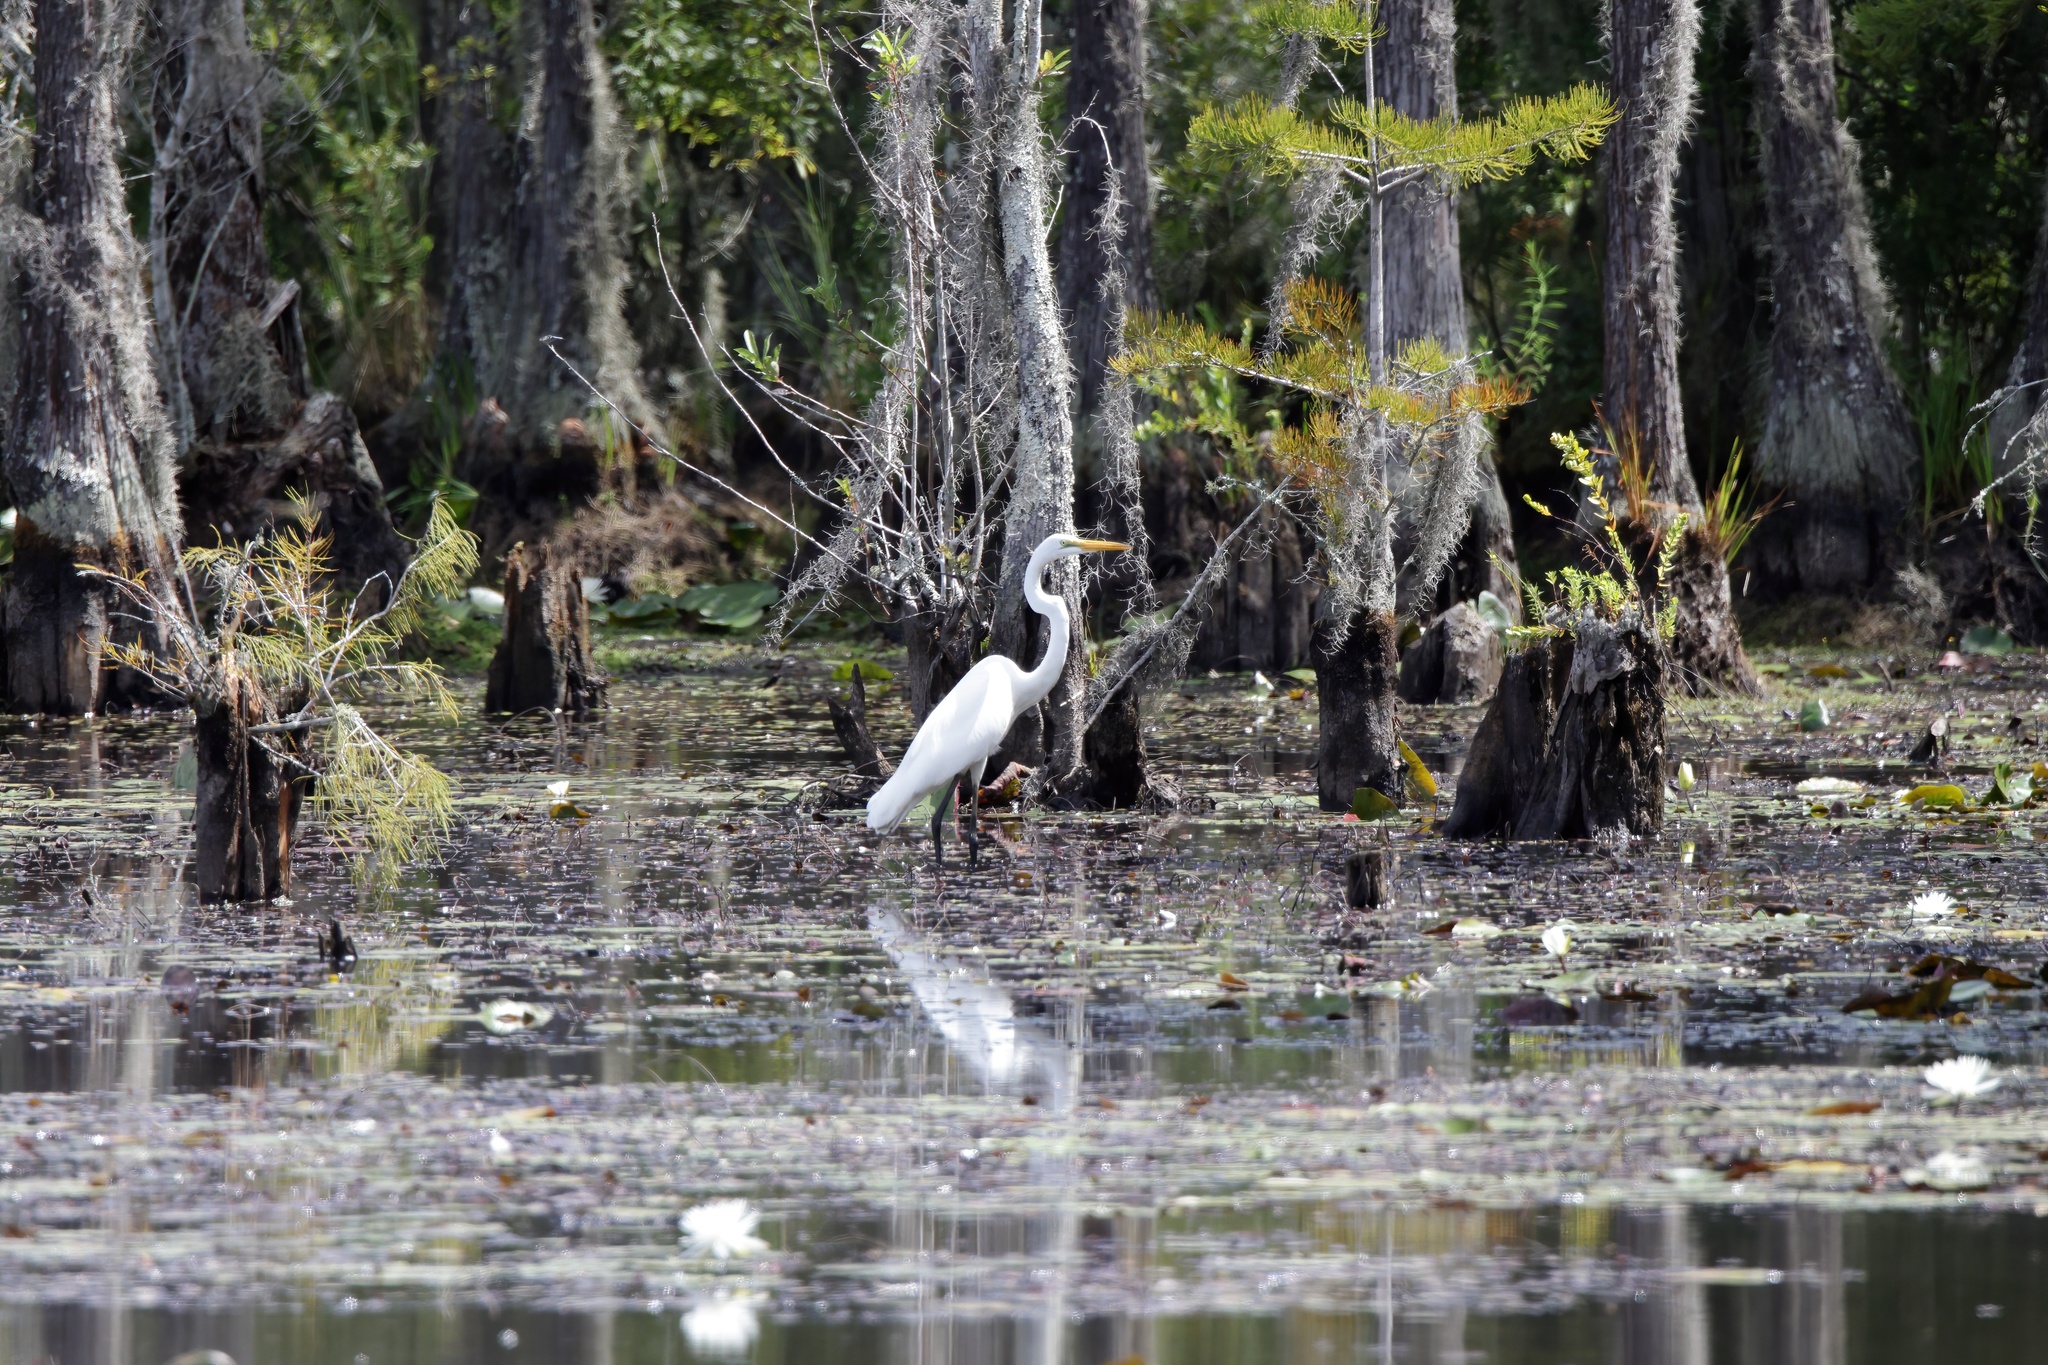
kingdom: Animalia
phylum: Chordata
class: Aves
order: Pelecaniformes
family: Ardeidae
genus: Ardea
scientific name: Ardea alba
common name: Great egret
